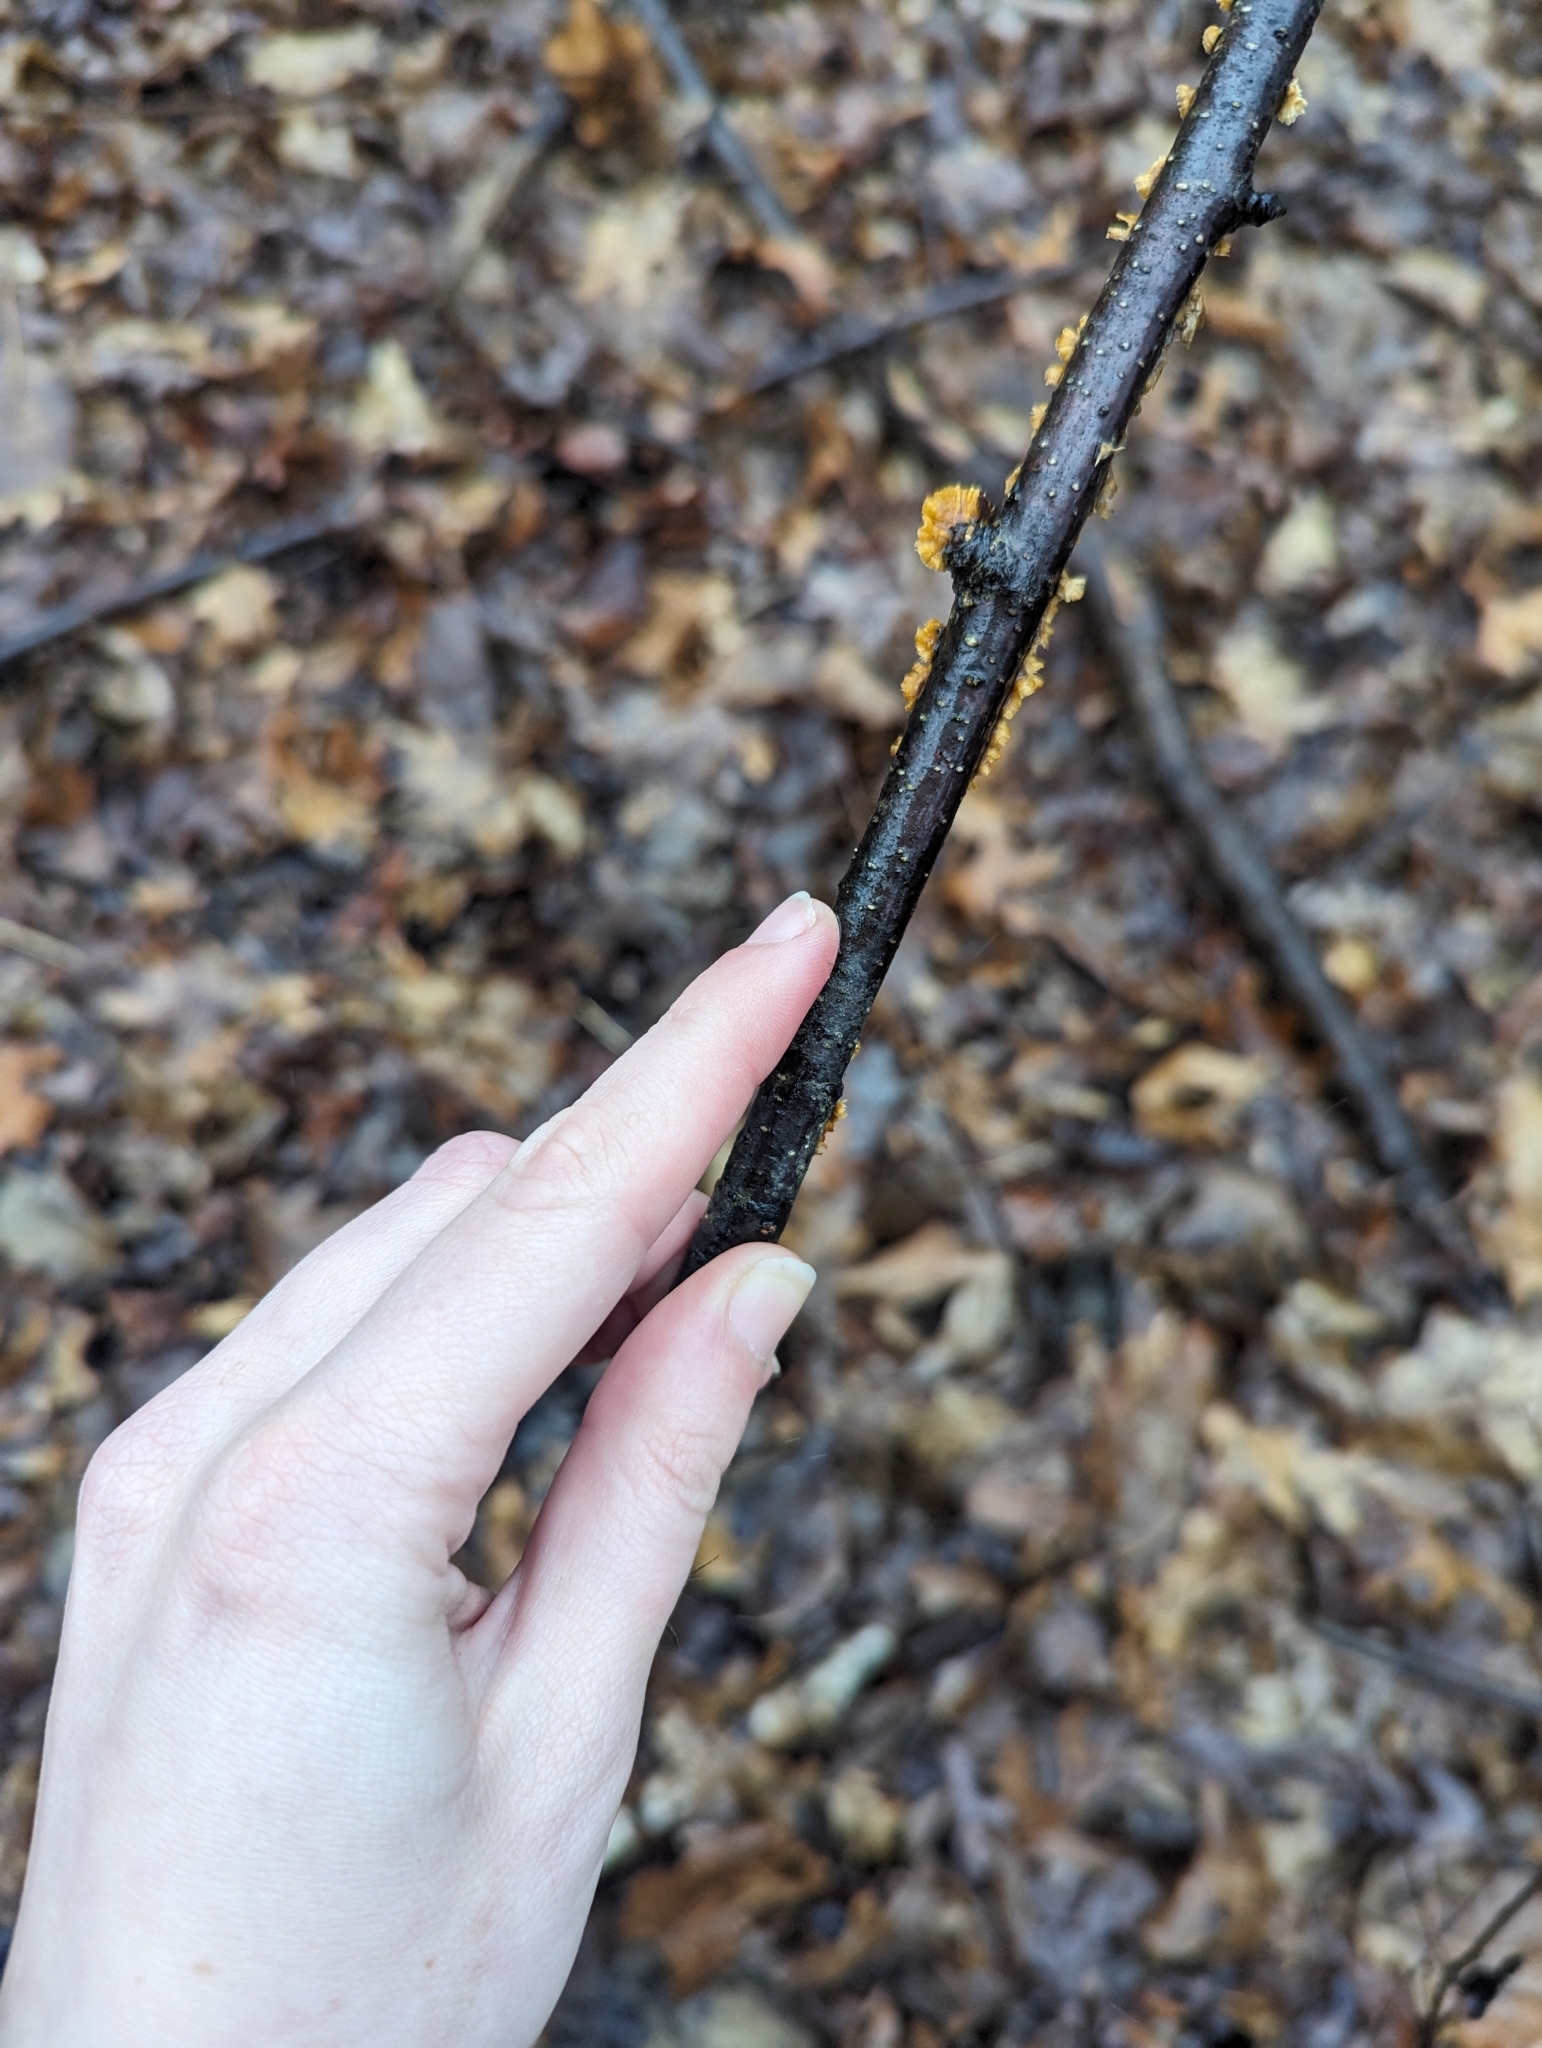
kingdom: Fungi
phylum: Basidiomycota
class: Agaricomycetes
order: Russulales
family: Stereaceae
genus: Stereum
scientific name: Stereum complicatum
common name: Crowded parchment
